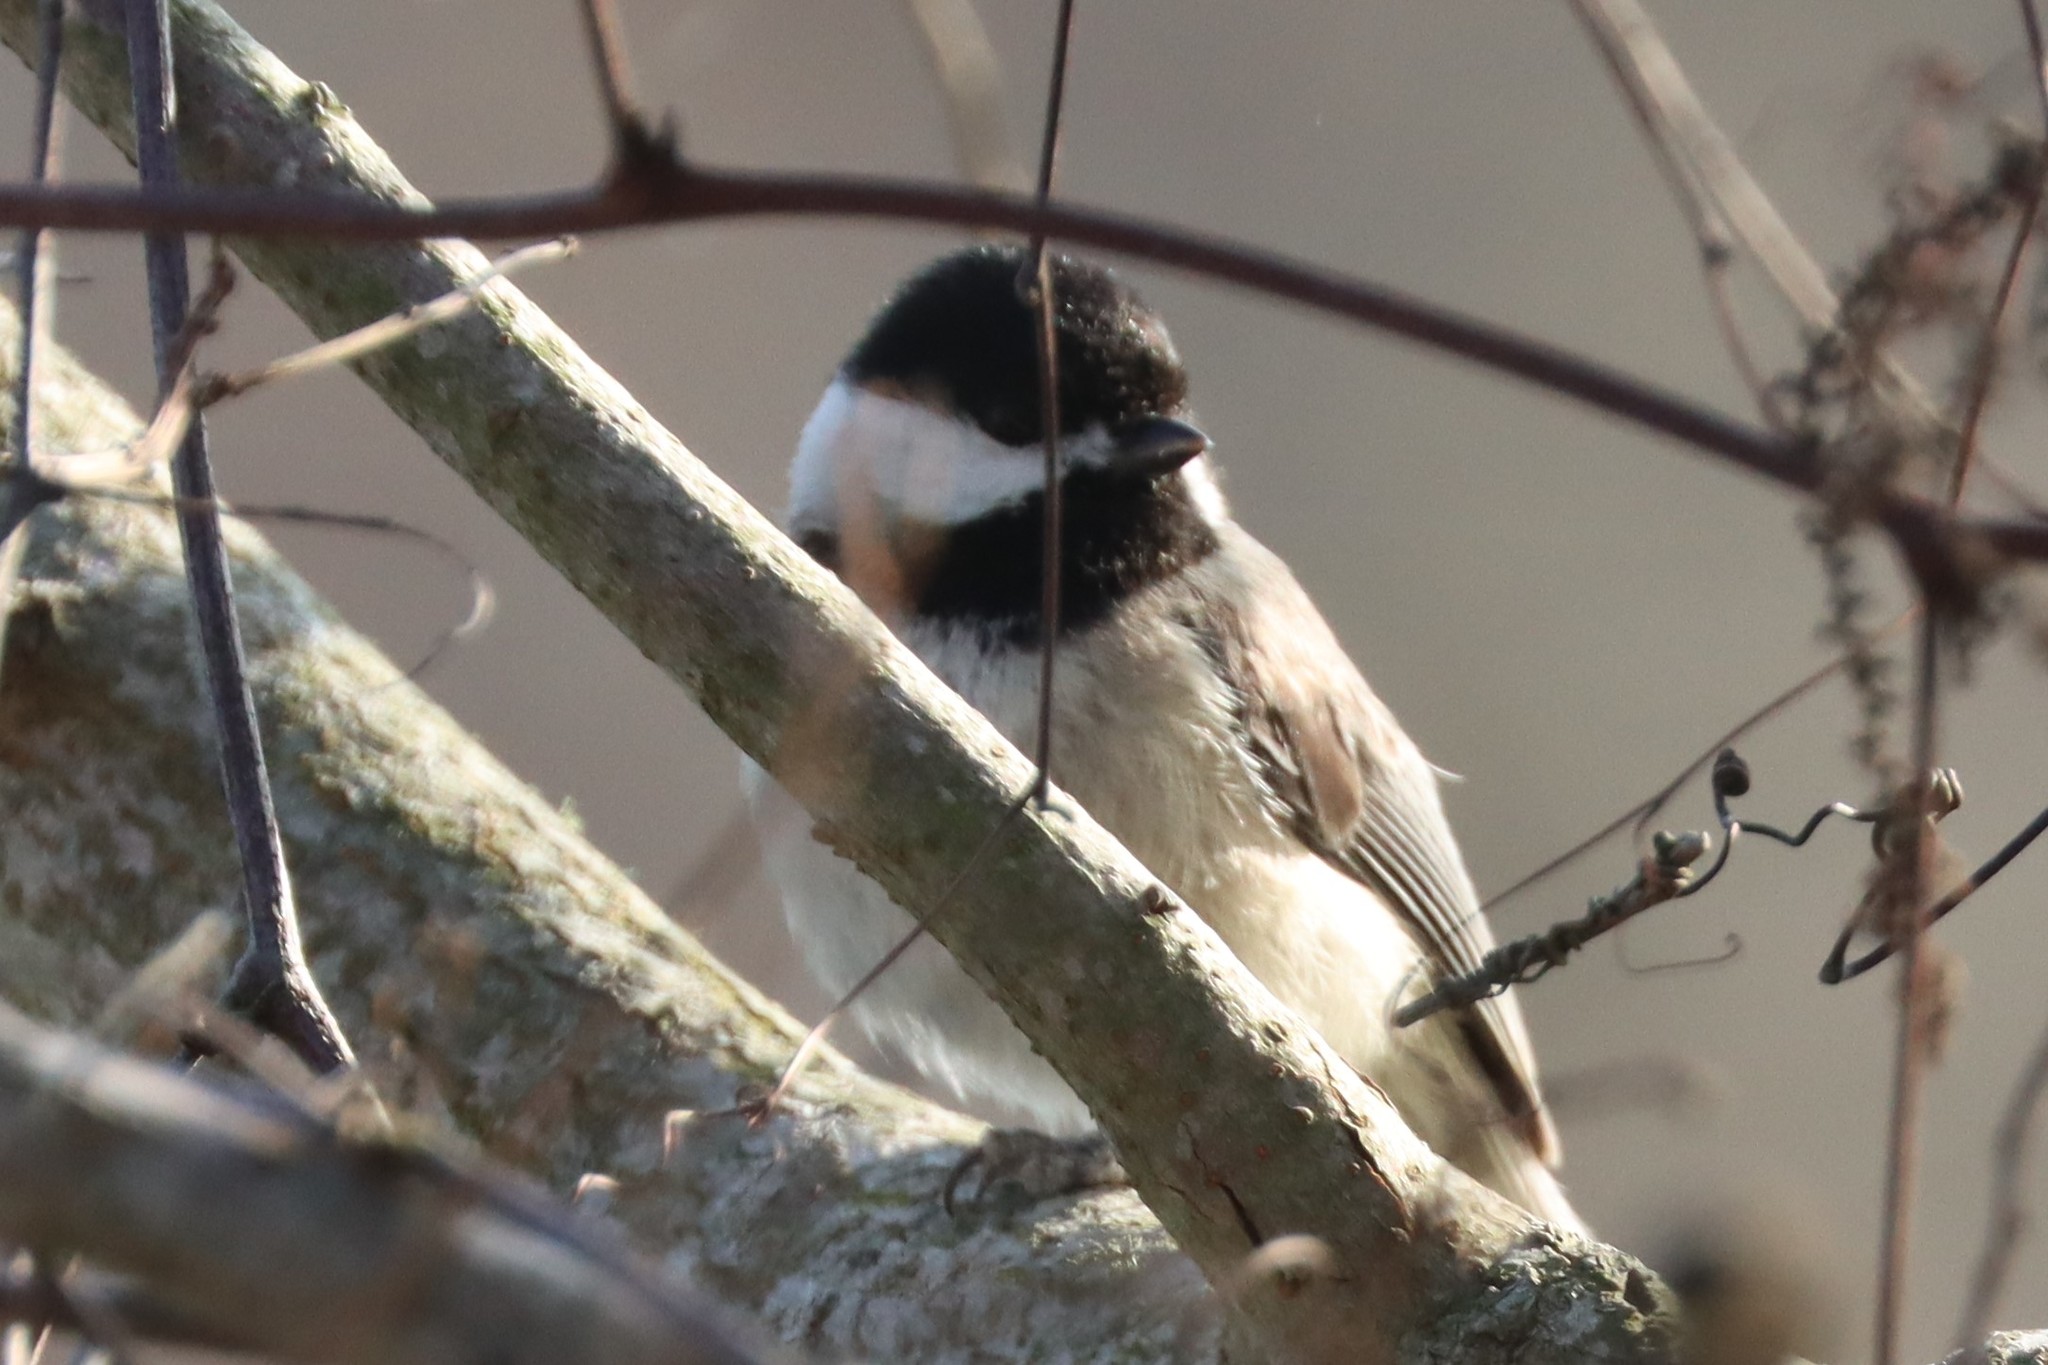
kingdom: Animalia
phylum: Chordata
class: Aves
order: Passeriformes
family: Paridae
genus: Poecile
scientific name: Poecile carolinensis
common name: Carolina chickadee
